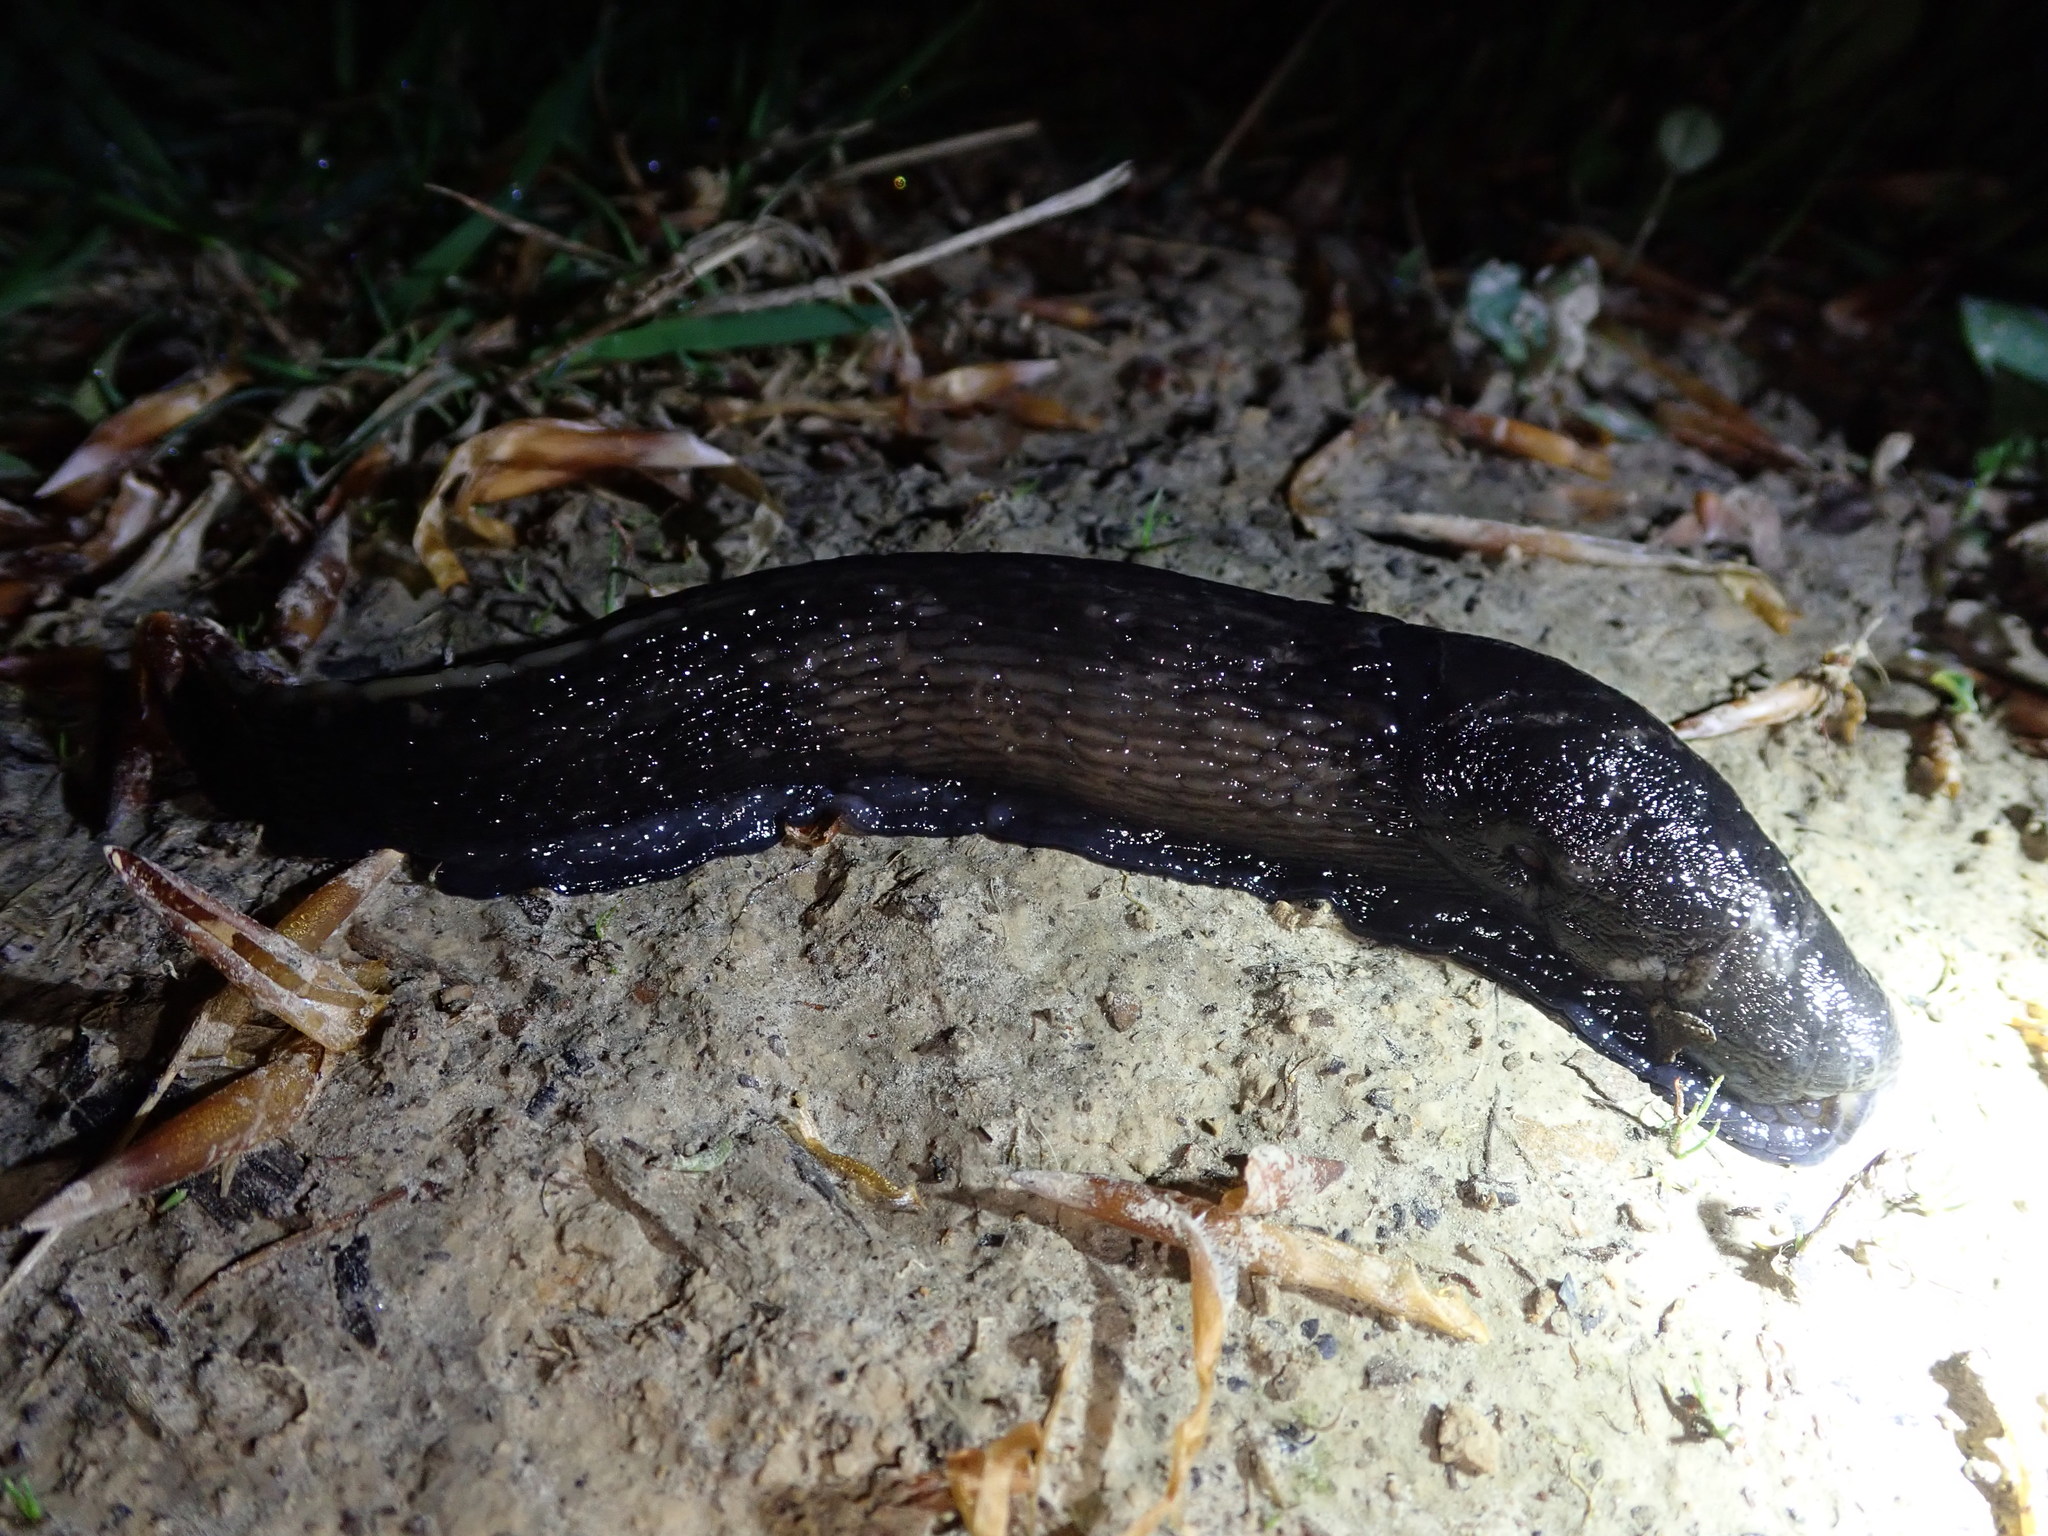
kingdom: Animalia
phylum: Mollusca
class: Gastropoda
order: Stylommatophora
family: Limacidae
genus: Limax
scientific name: Limax cinereoniger
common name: Ash-black slug
